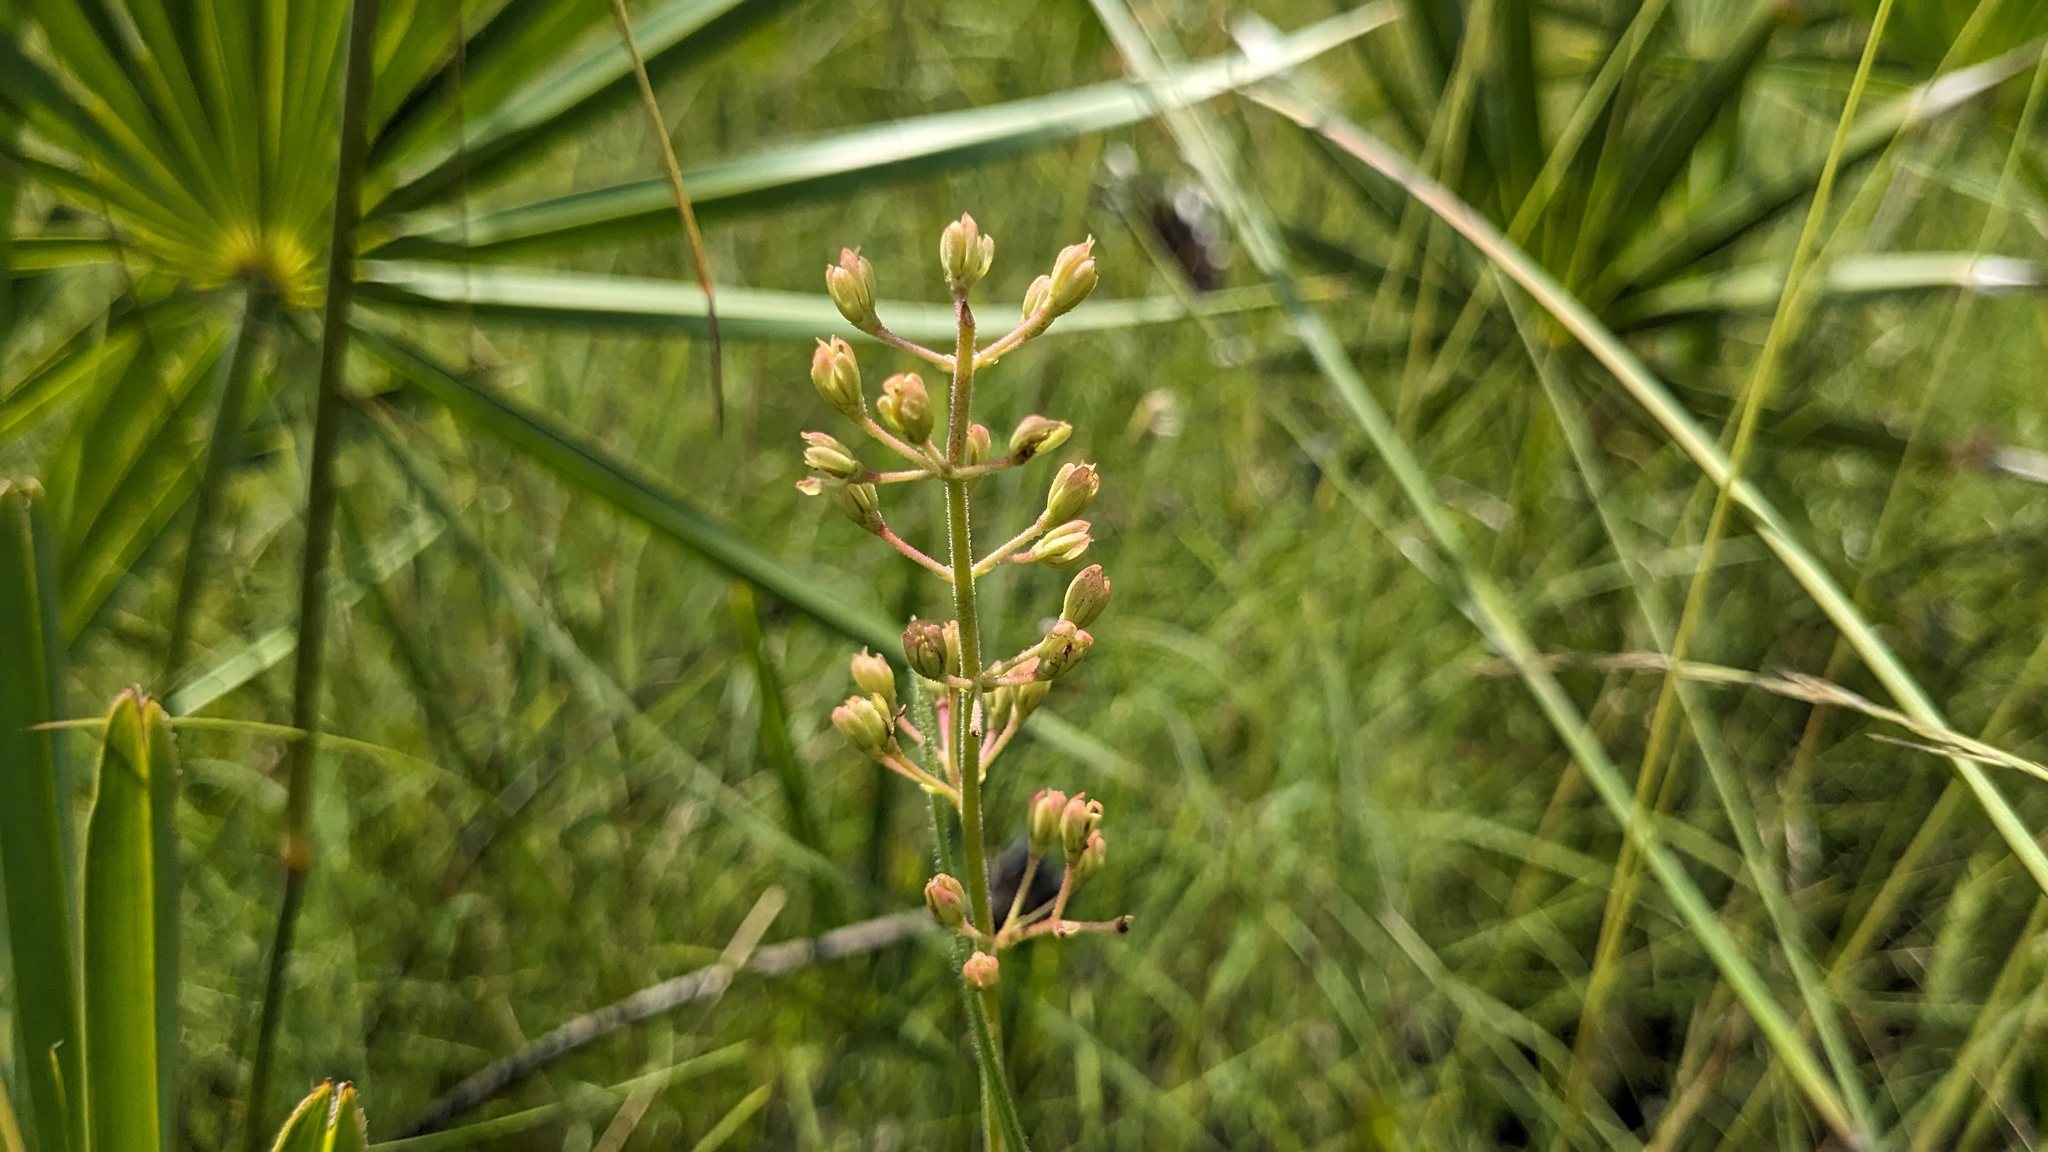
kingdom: Plantae
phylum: Tracheophyta
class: Liliopsida
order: Alismatales
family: Tofieldiaceae
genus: Triantha
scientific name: Triantha racemosa
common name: Coastal false asphodel
